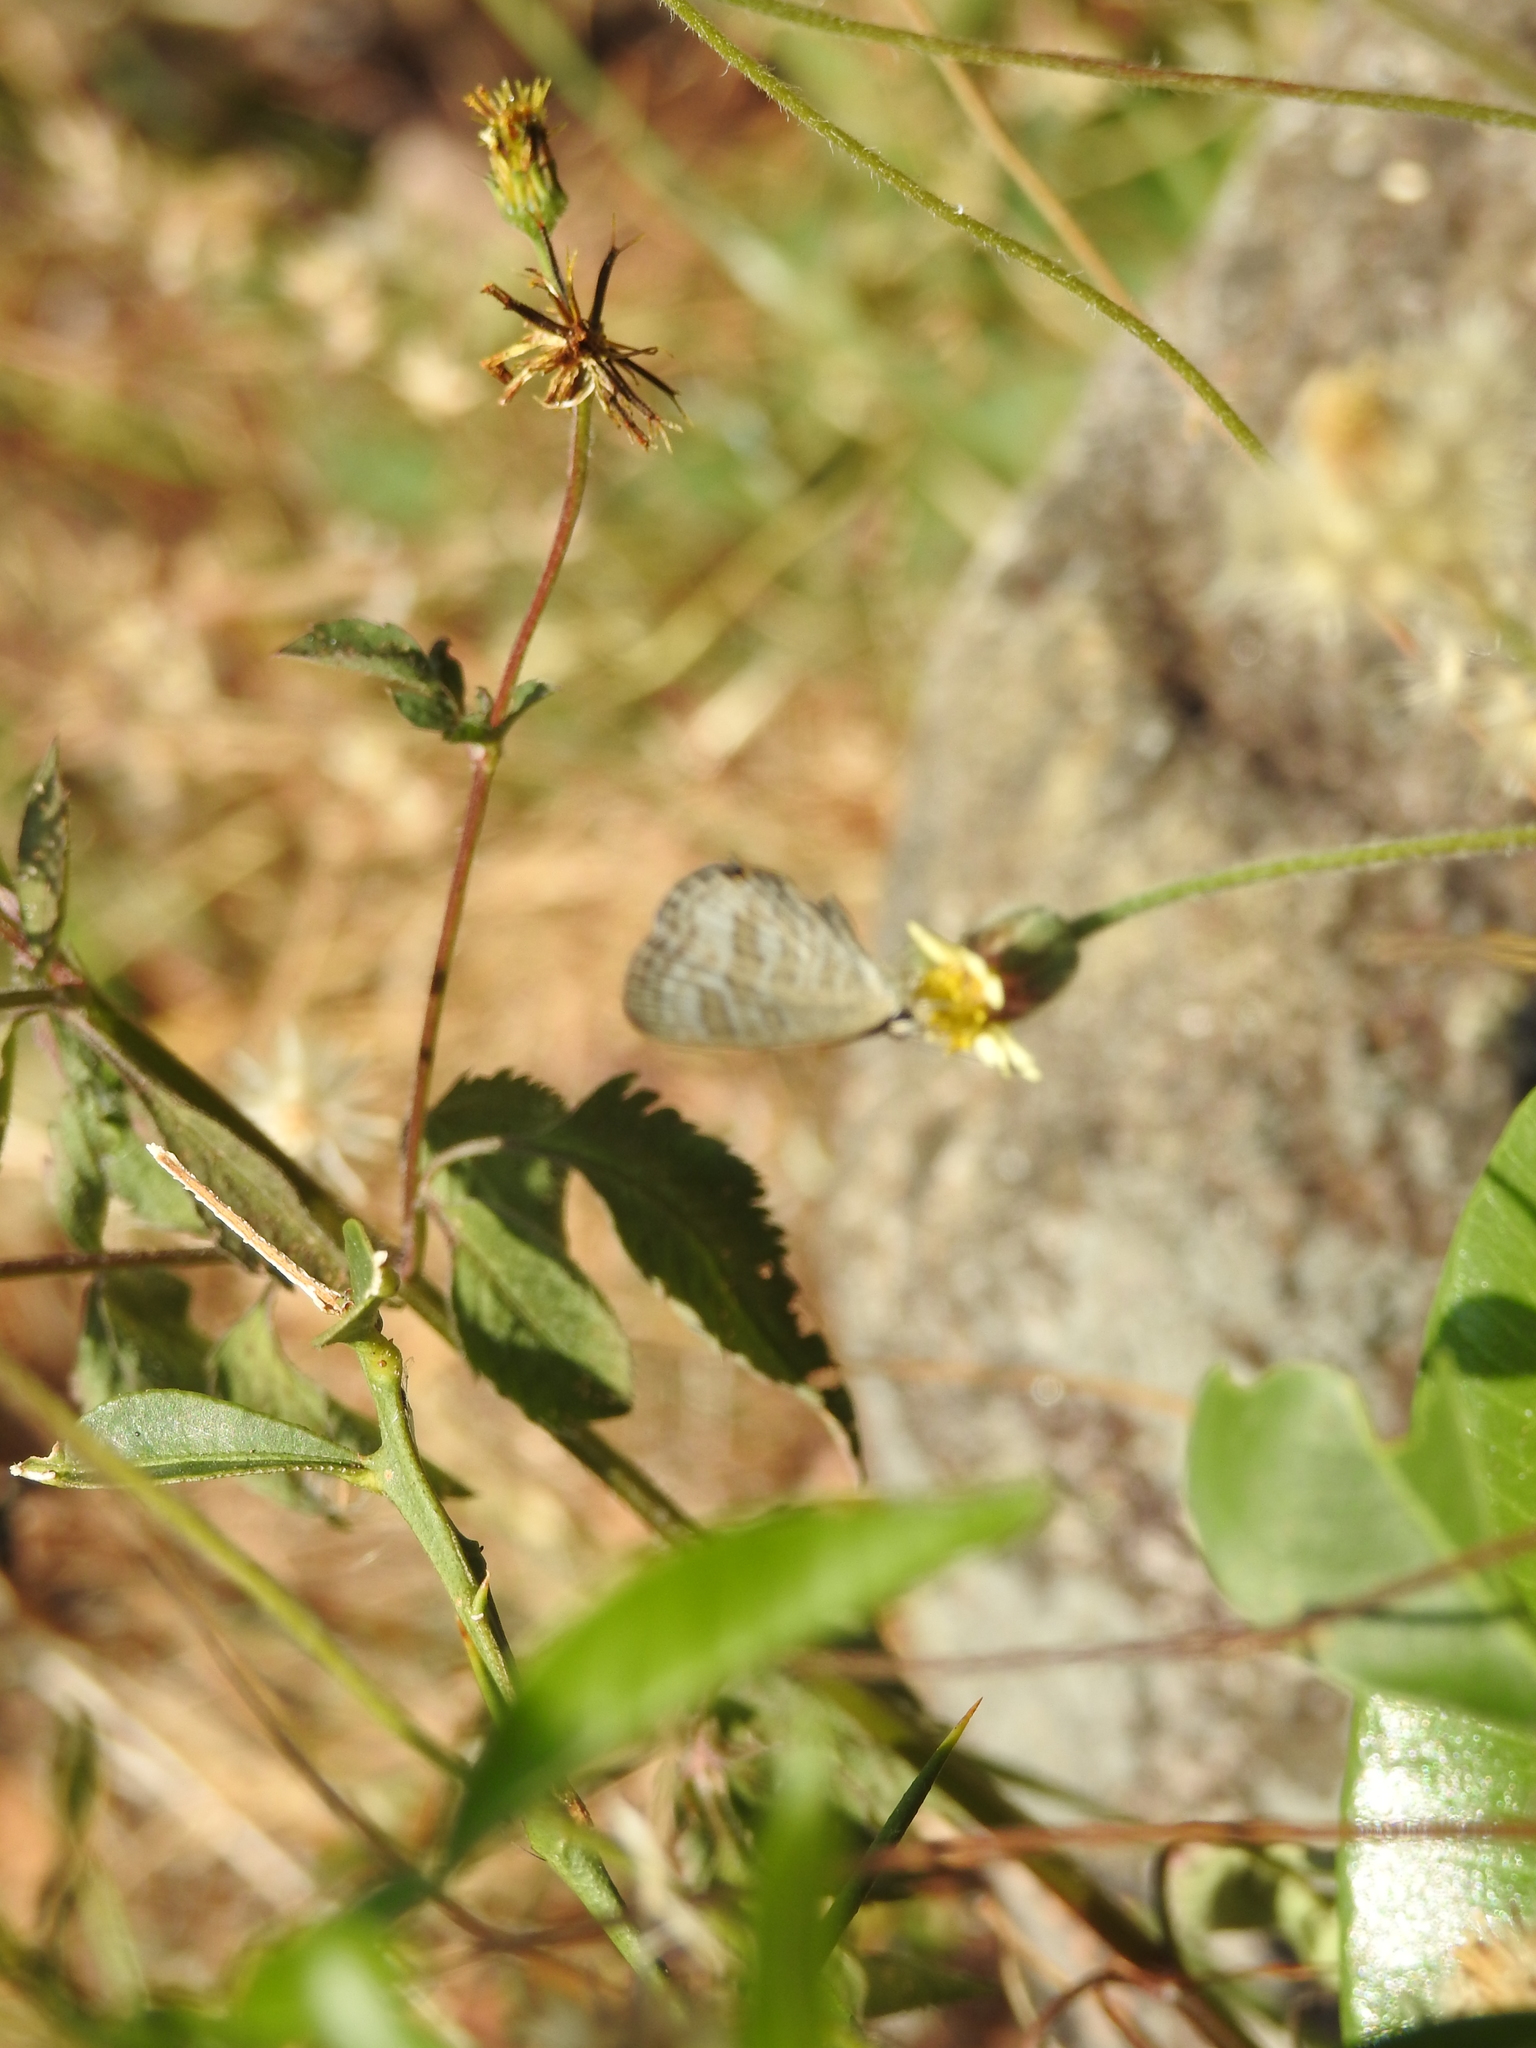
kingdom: Animalia
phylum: Arthropoda
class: Insecta
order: Lepidoptera
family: Lycaenidae
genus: Jamides
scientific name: Jamides celeno
